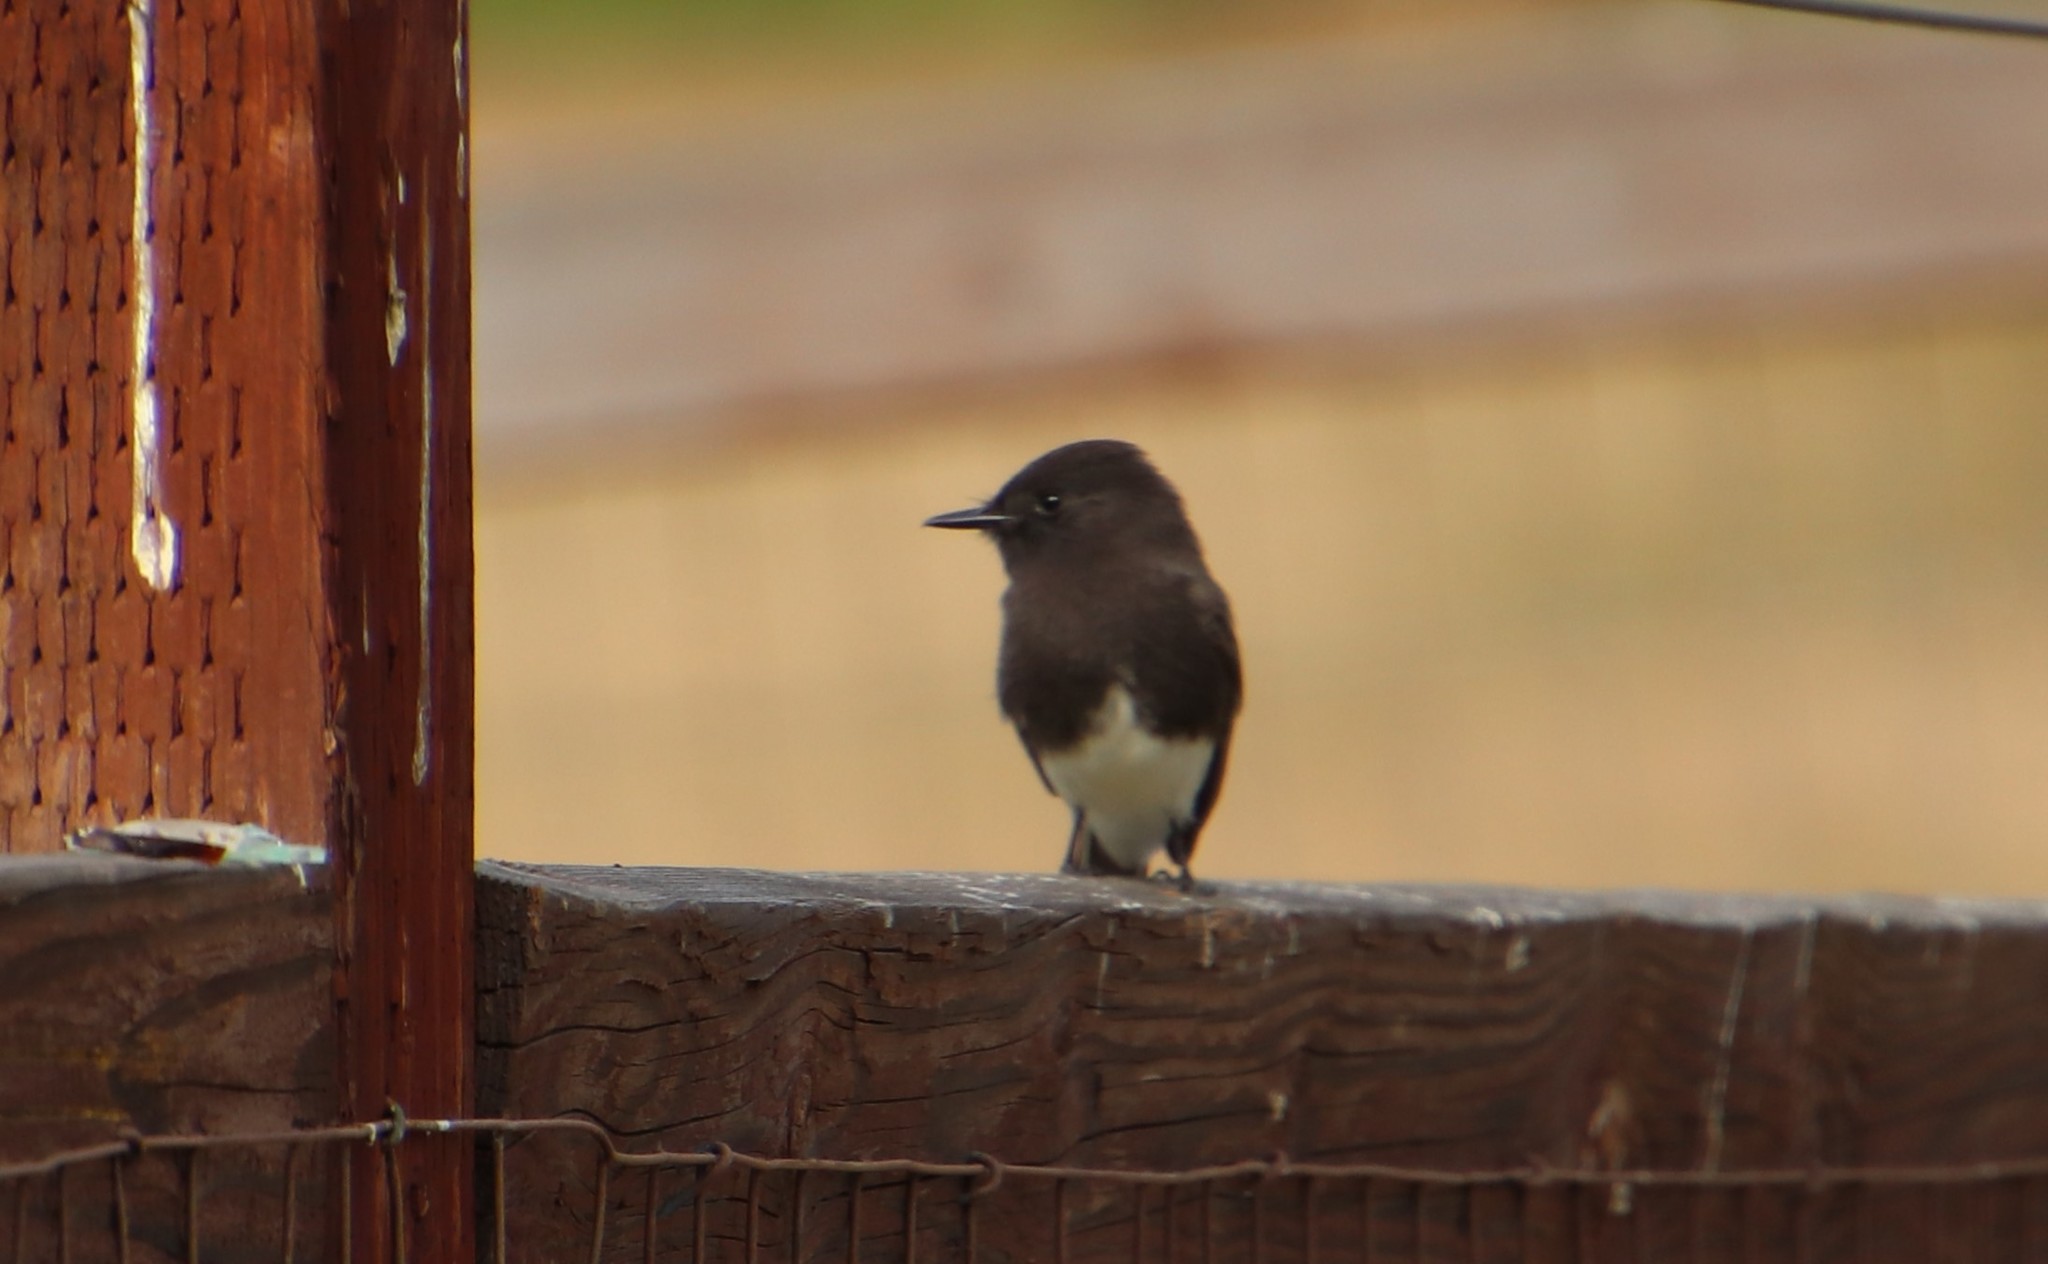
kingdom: Animalia
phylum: Chordata
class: Aves
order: Passeriformes
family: Tyrannidae
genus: Sayornis
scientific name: Sayornis nigricans
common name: Black phoebe
